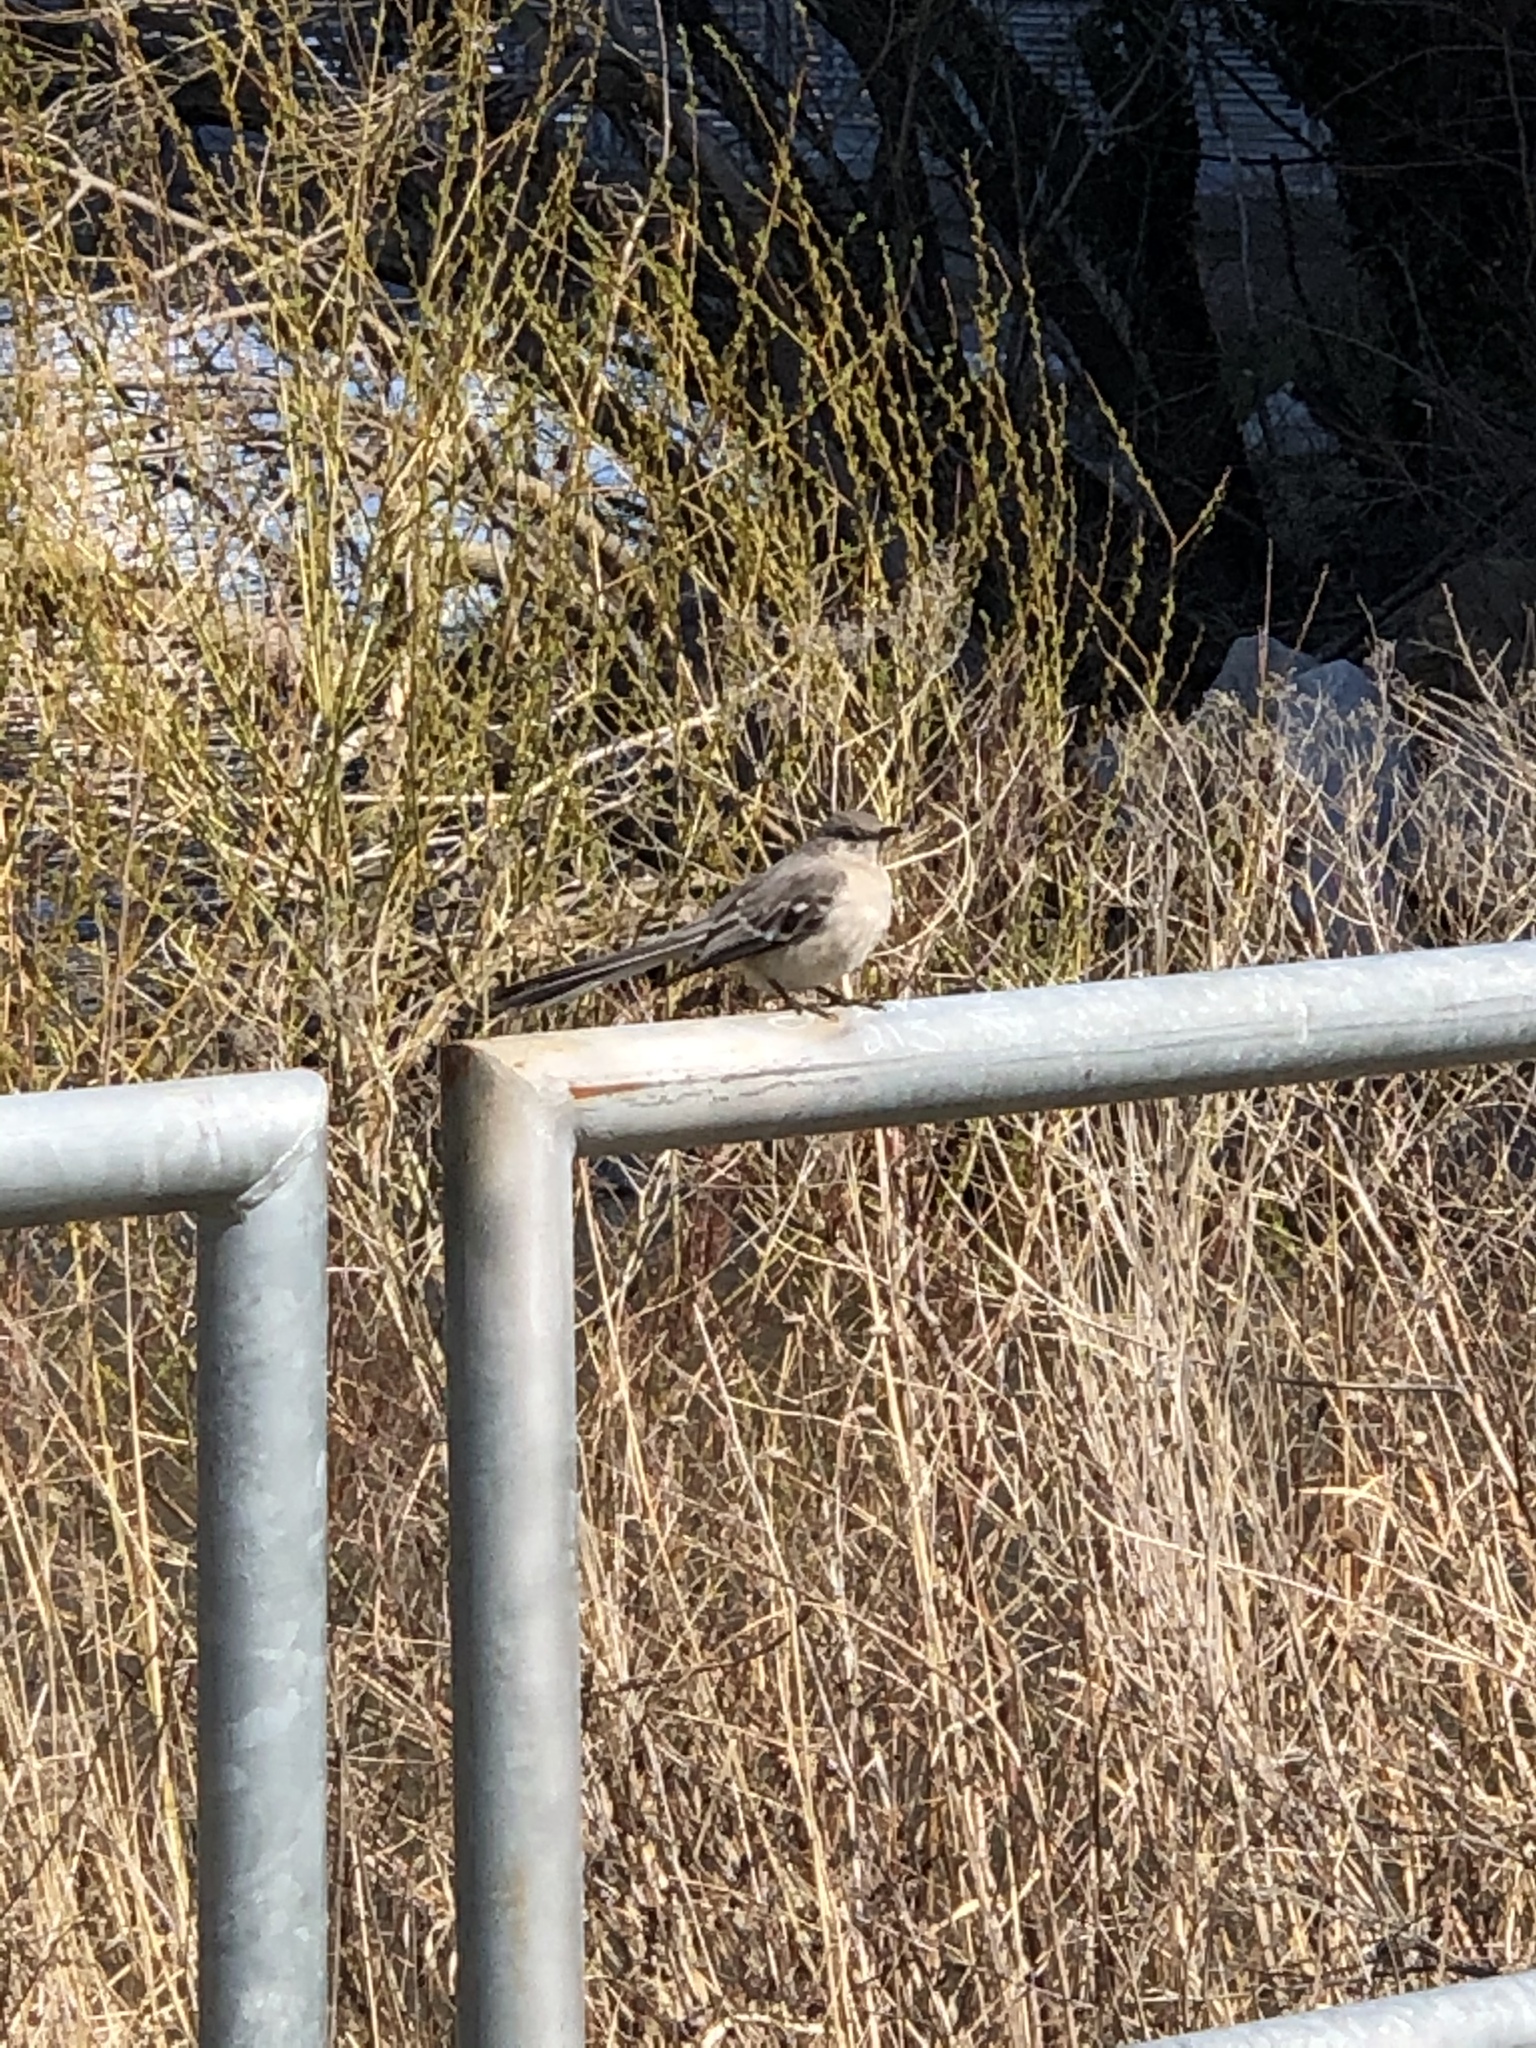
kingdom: Animalia
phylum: Chordata
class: Aves
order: Passeriformes
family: Mimidae
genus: Mimus
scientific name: Mimus polyglottos
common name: Northern mockingbird
